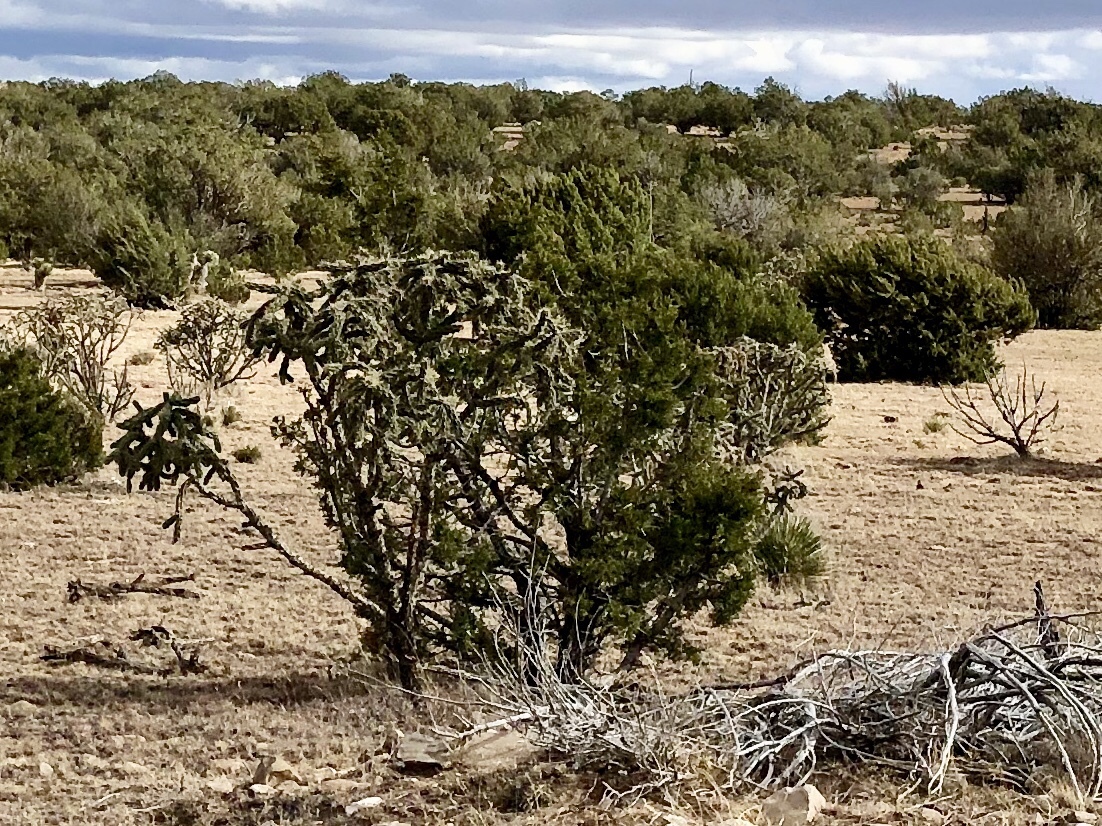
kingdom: Plantae
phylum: Tracheophyta
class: Magnoliopsida
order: Caryophyllales
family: Cactaceae
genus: Cylindropuntia
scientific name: Cylindropuntia imbricata
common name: Candelabrum cactus
